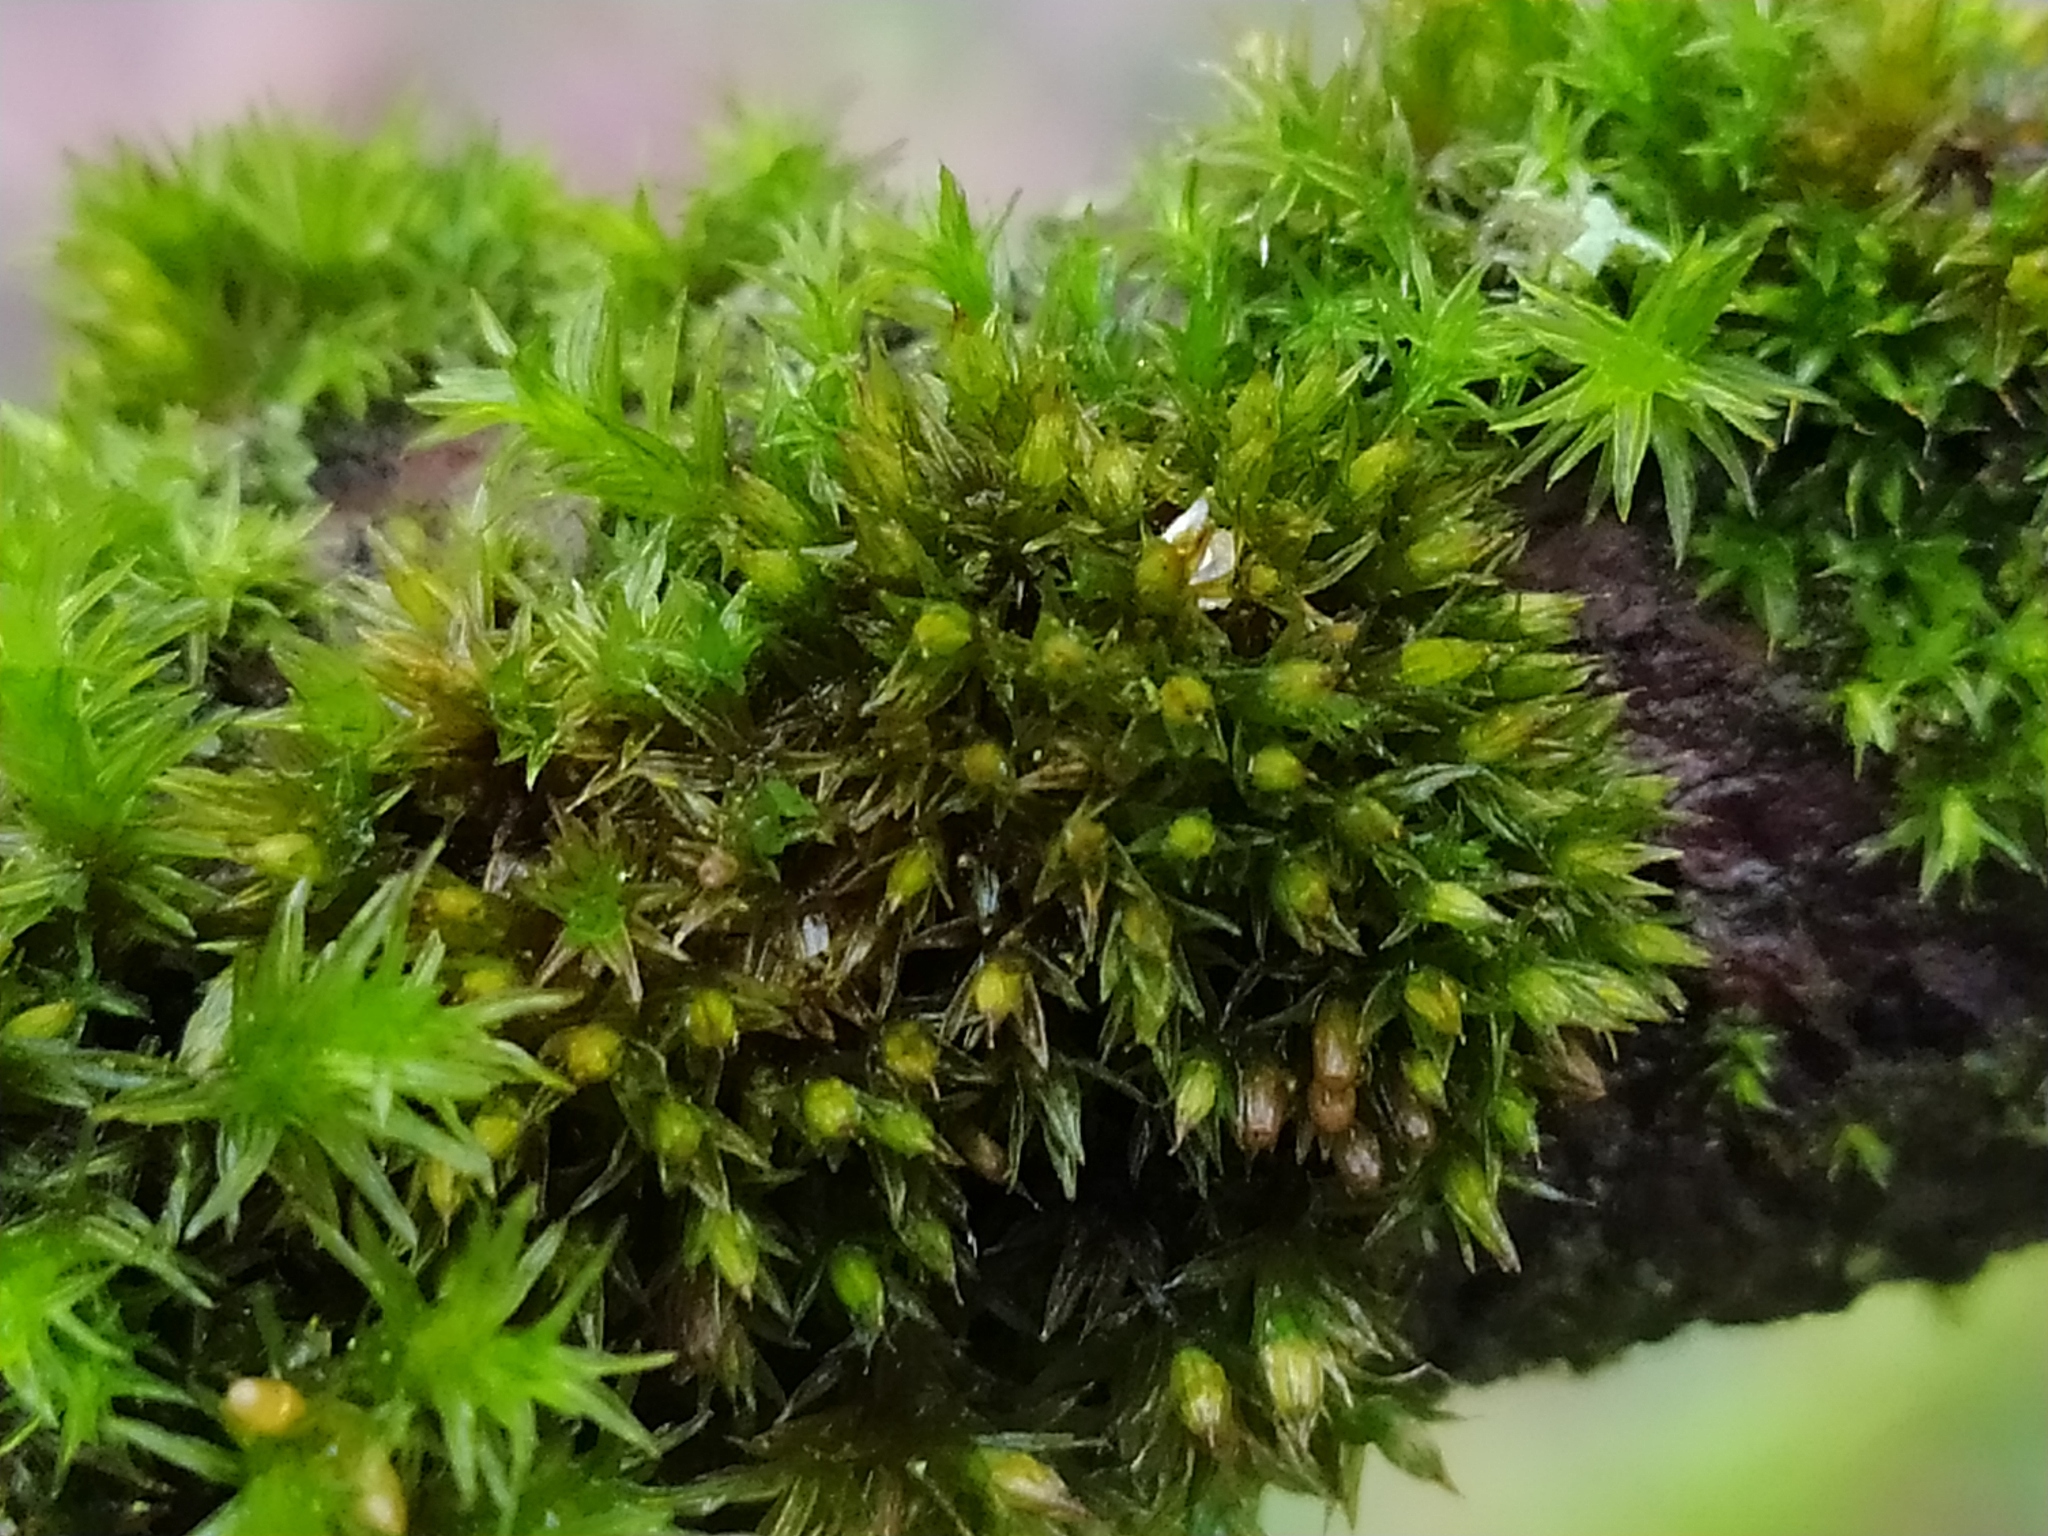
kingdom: Plantae
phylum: Bryophyta
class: Bryopsida
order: Orthotrichales
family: Orthotrichaceae
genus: Orthotrichum
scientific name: Orthotrichum diaphanum
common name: White-tipped bristle-moss
